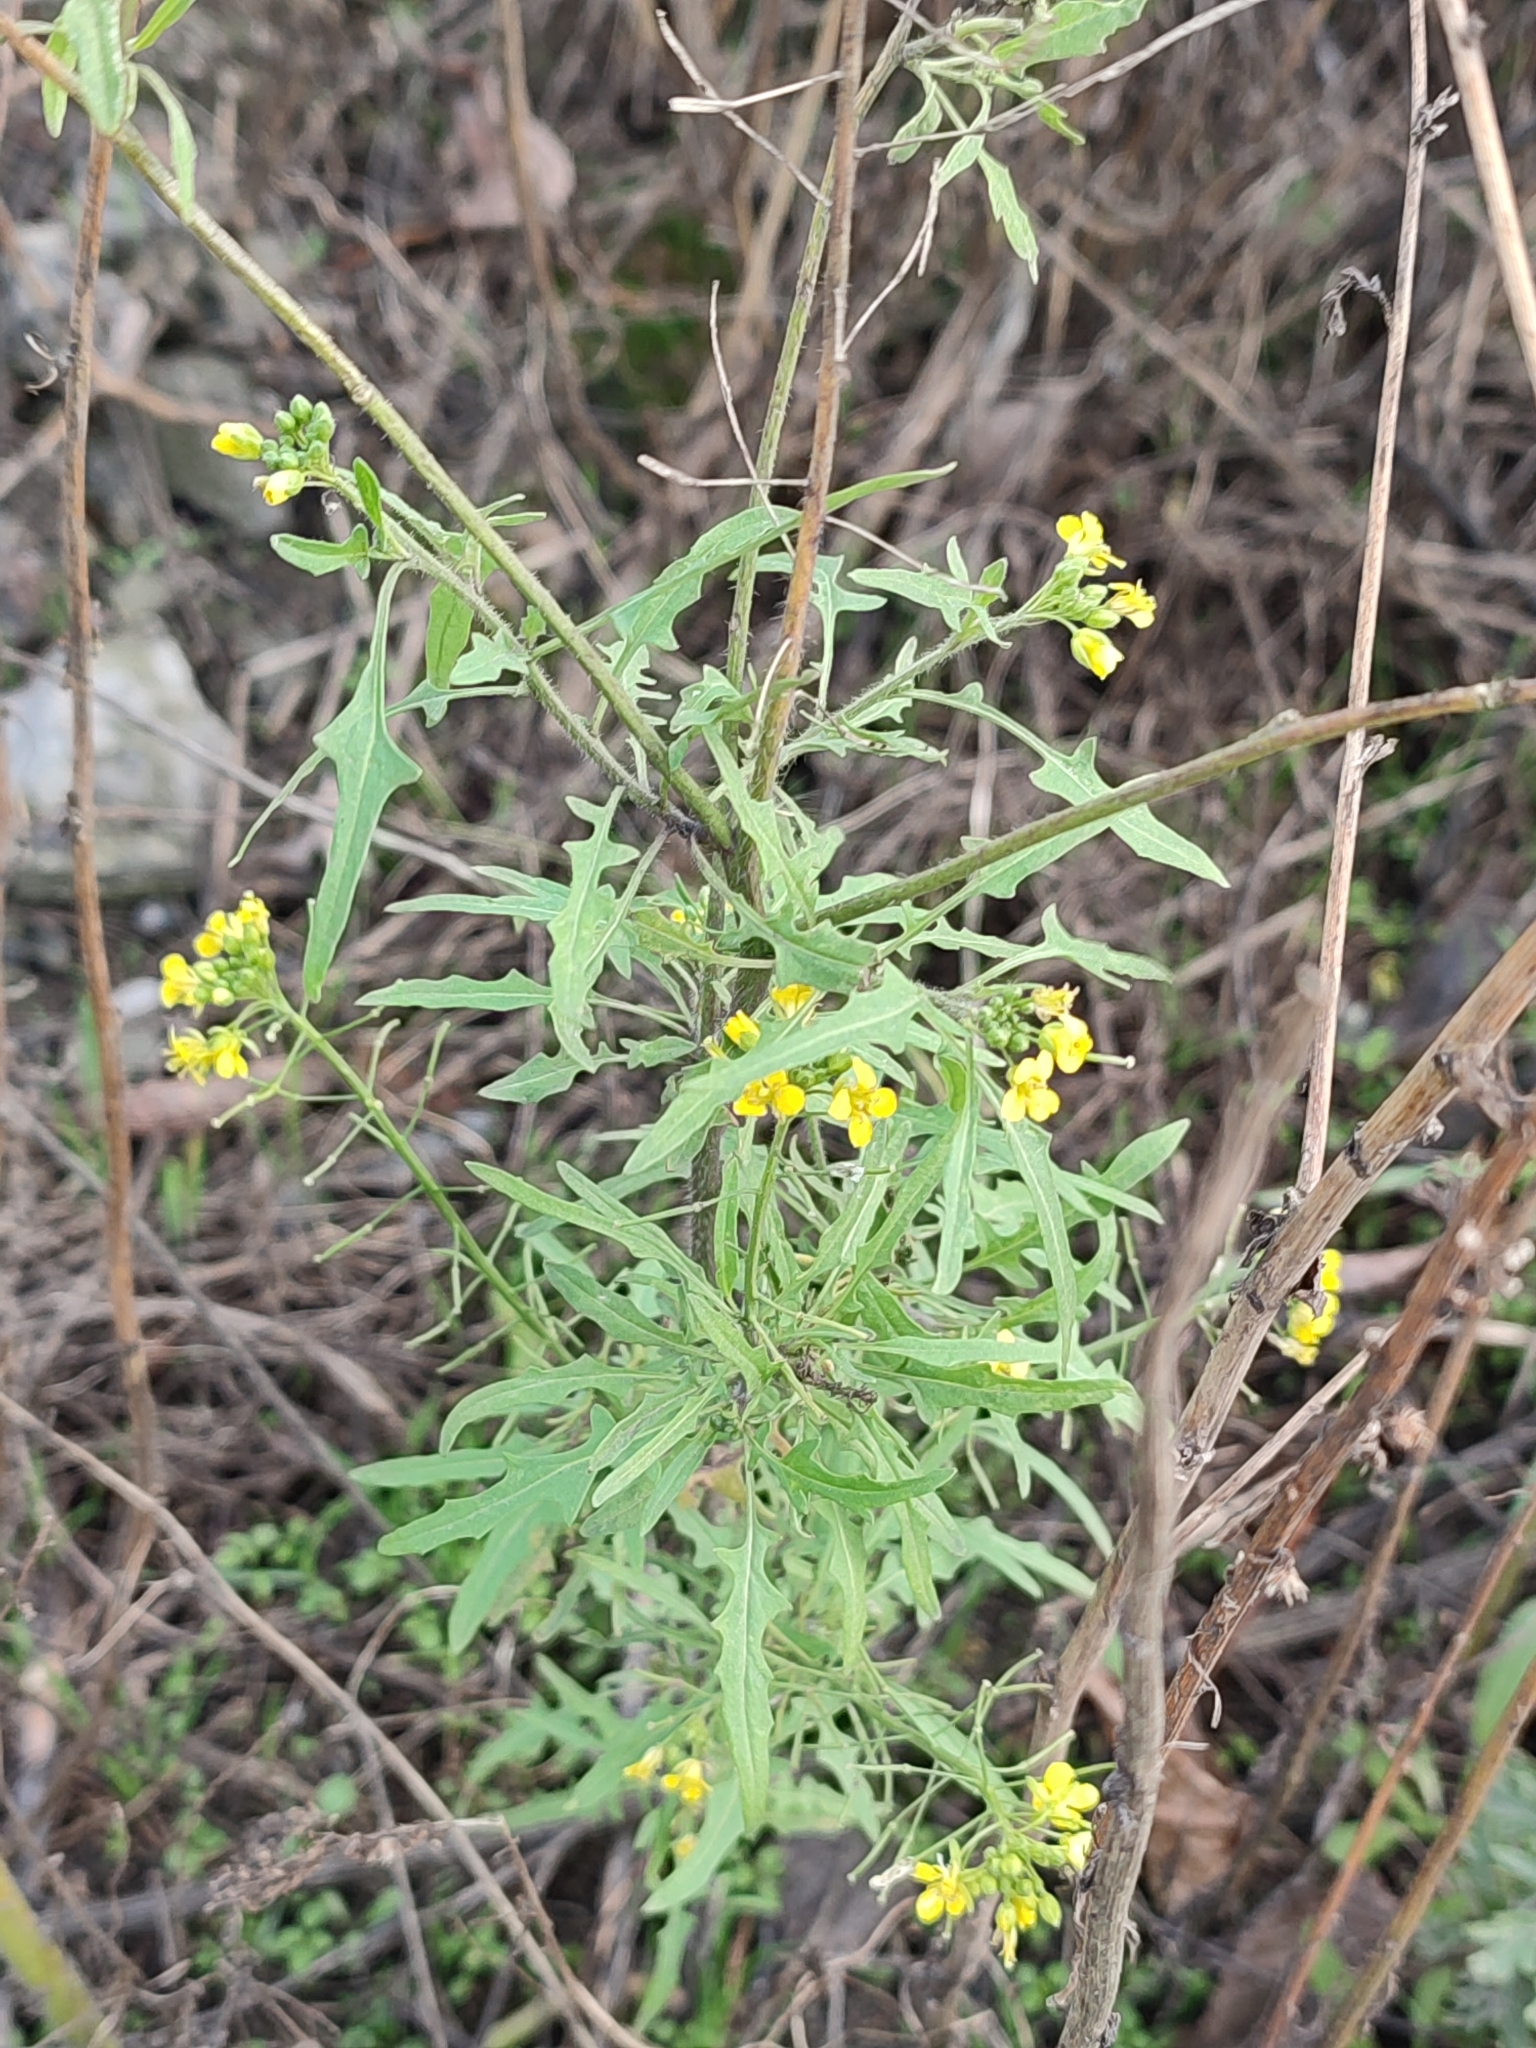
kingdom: Plantae
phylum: Tracheophyta
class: Magnoliopsida
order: Brassicales
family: Brassicaceae
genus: Sisymbrium
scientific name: Sisymbrium loeselii
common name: False london-rocket
